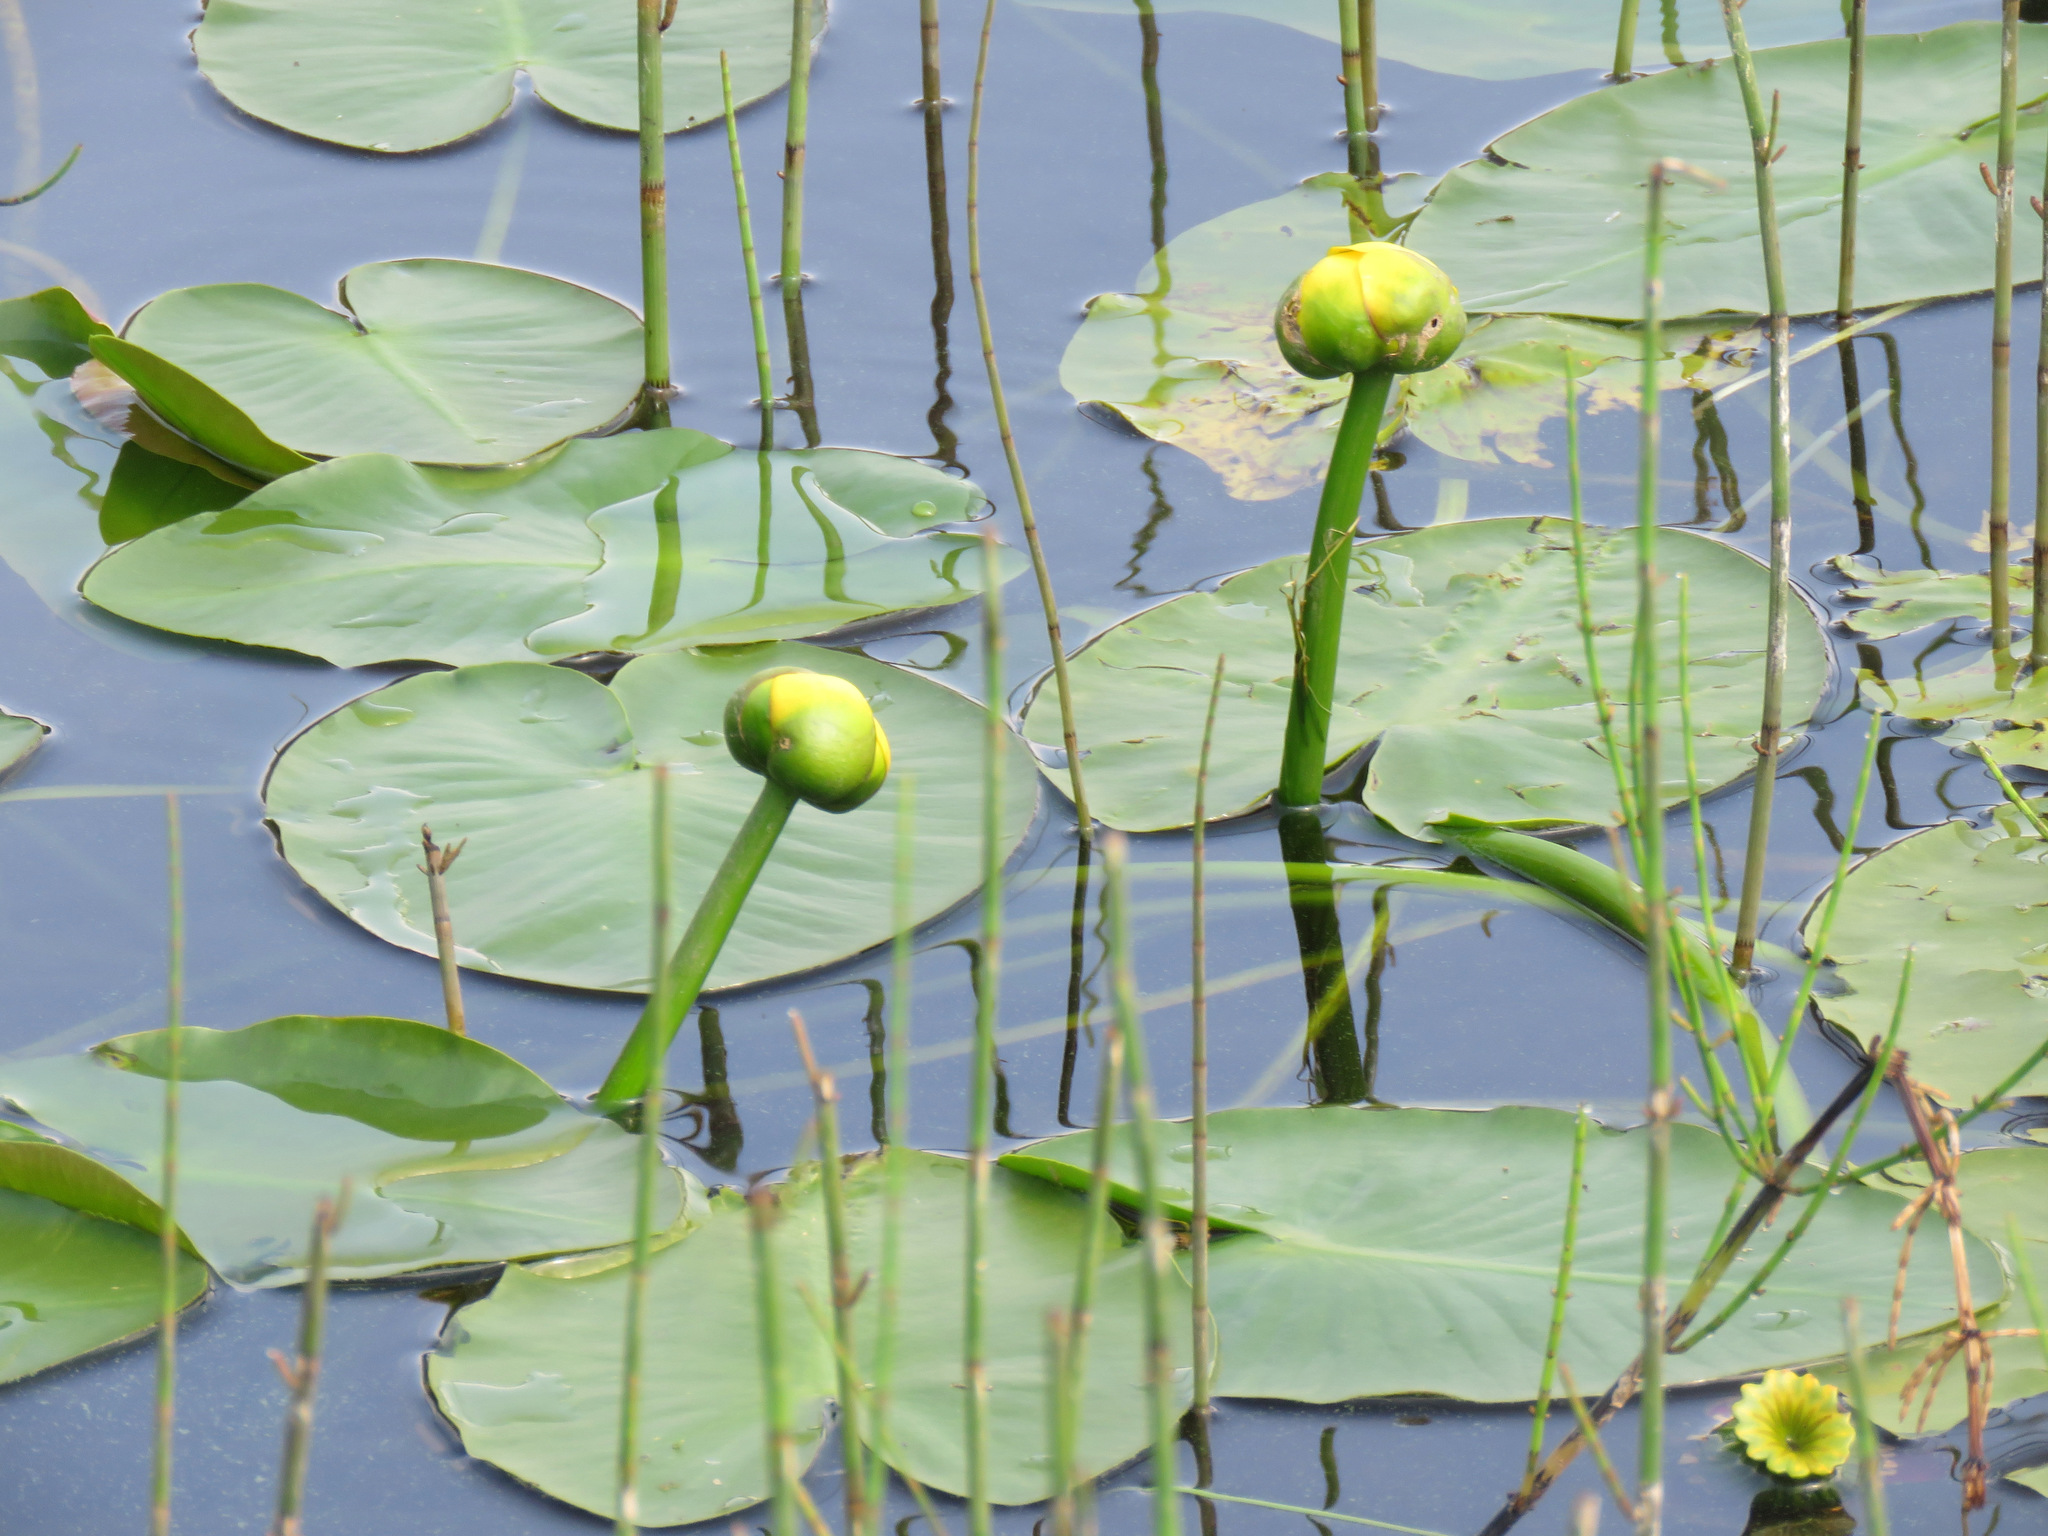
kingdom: Plantae
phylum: Tracheophyta
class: Magnoliopsida
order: Nymphaeales
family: Nymphaeaceae
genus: Nuphar
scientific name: Nuphar polysepala
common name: Rocky mountain cow-lily
